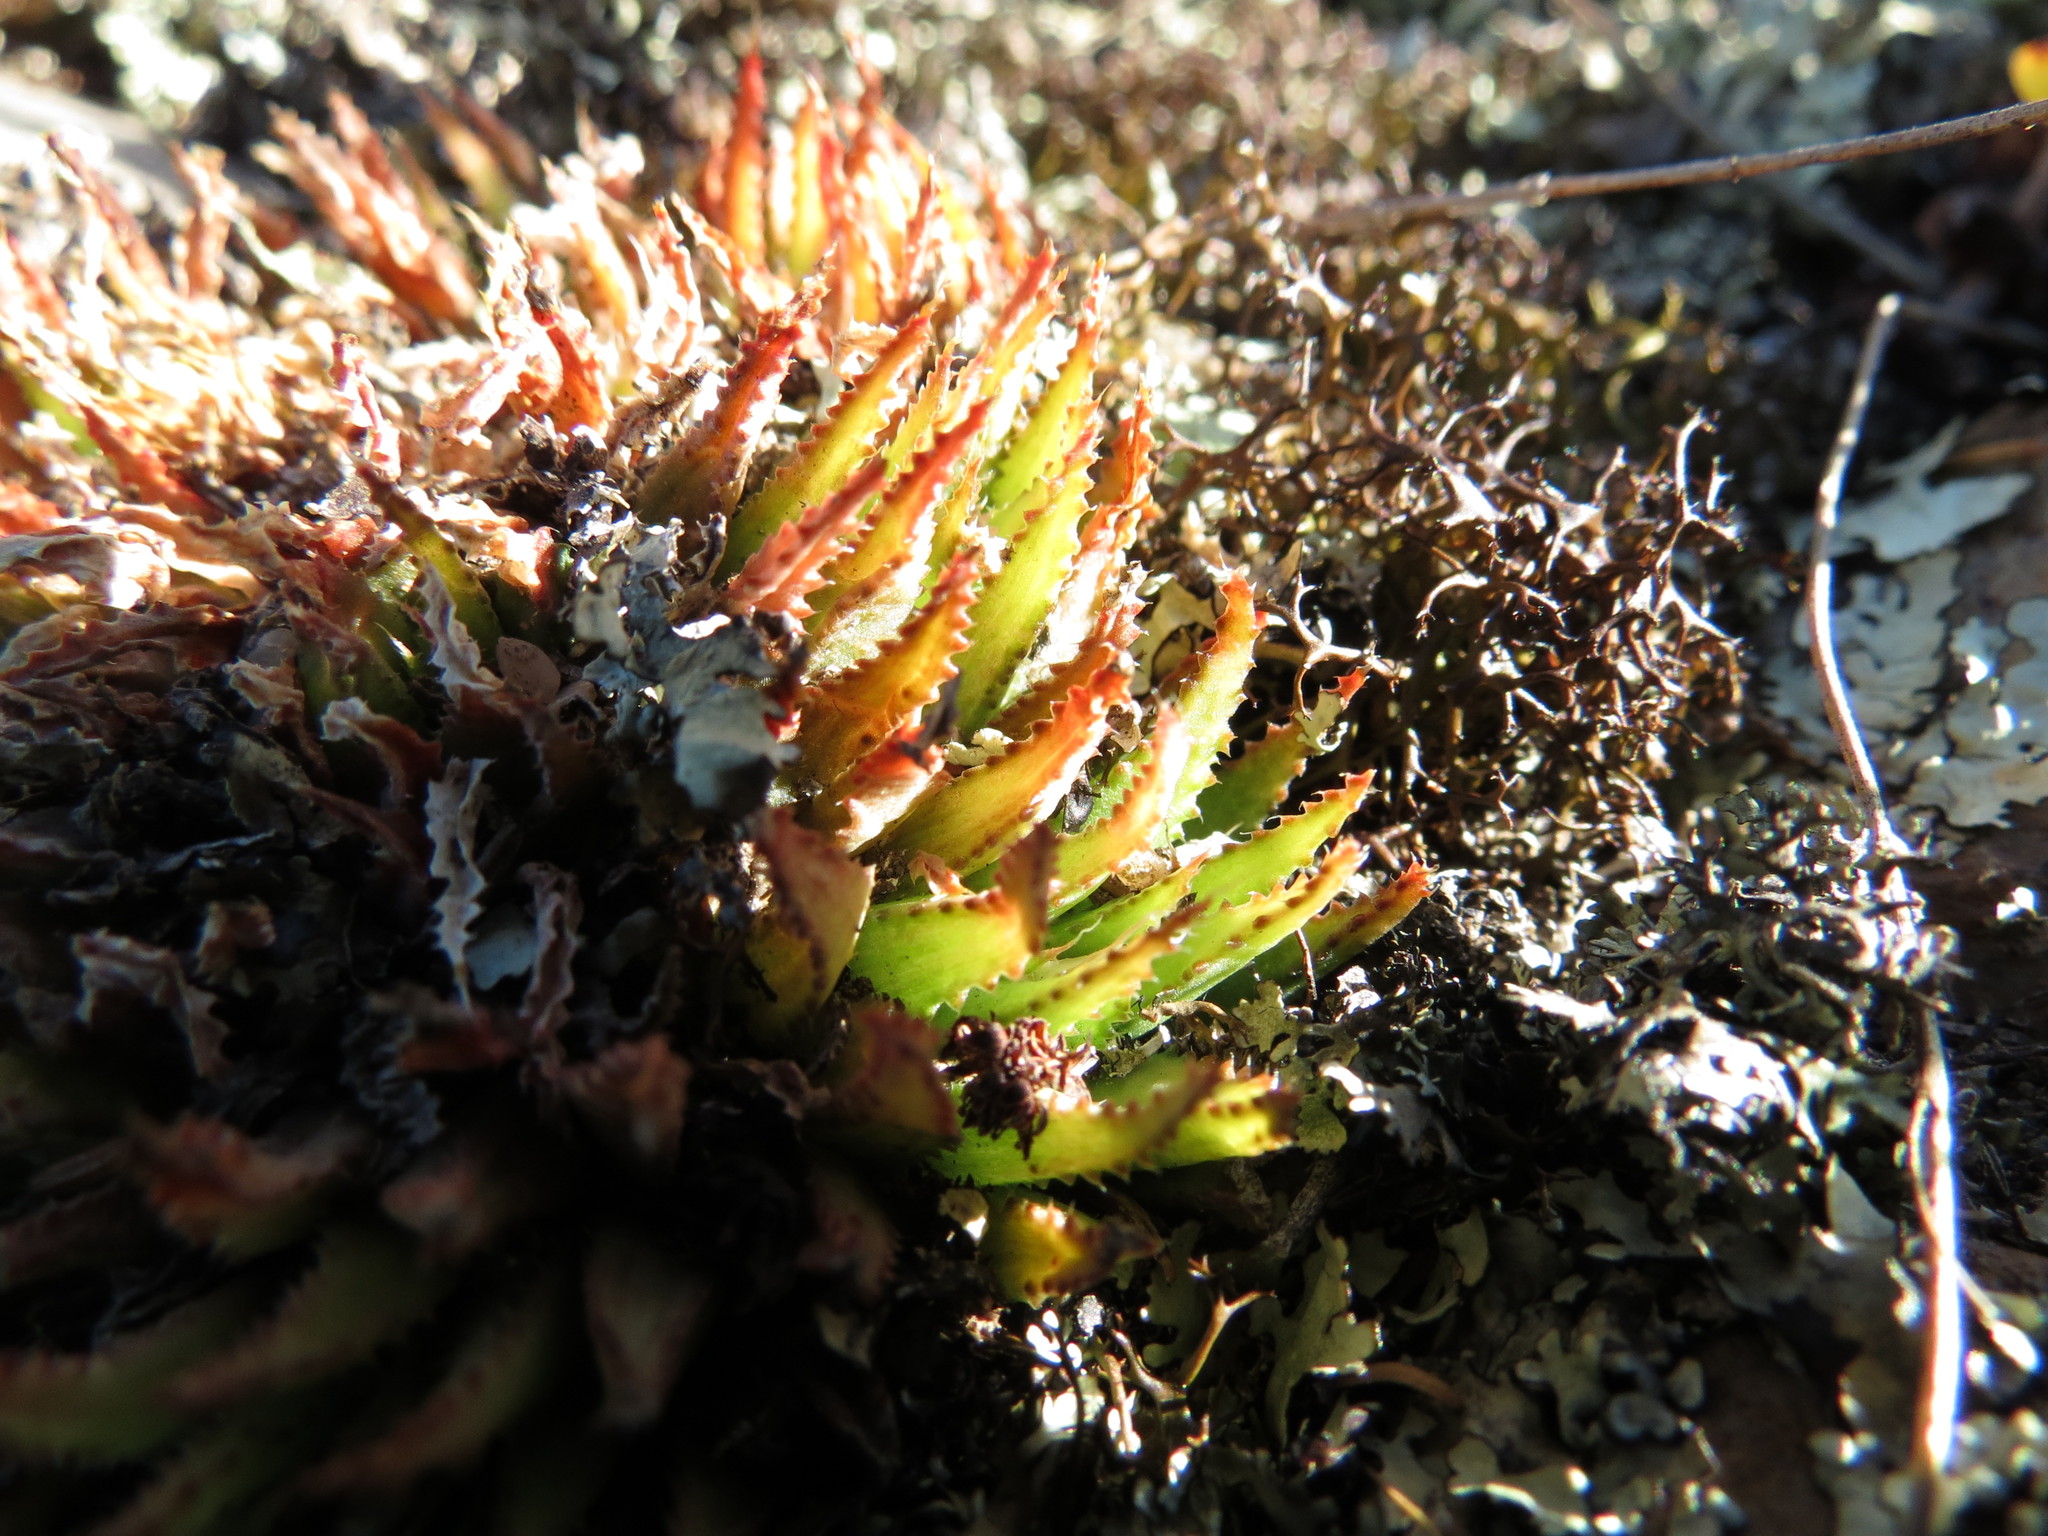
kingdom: Plantae
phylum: Tracheophyta
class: Liliopsida
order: Asparagales
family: Asphodelaceae
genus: Haworthia
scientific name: Haworthia chloracantha
